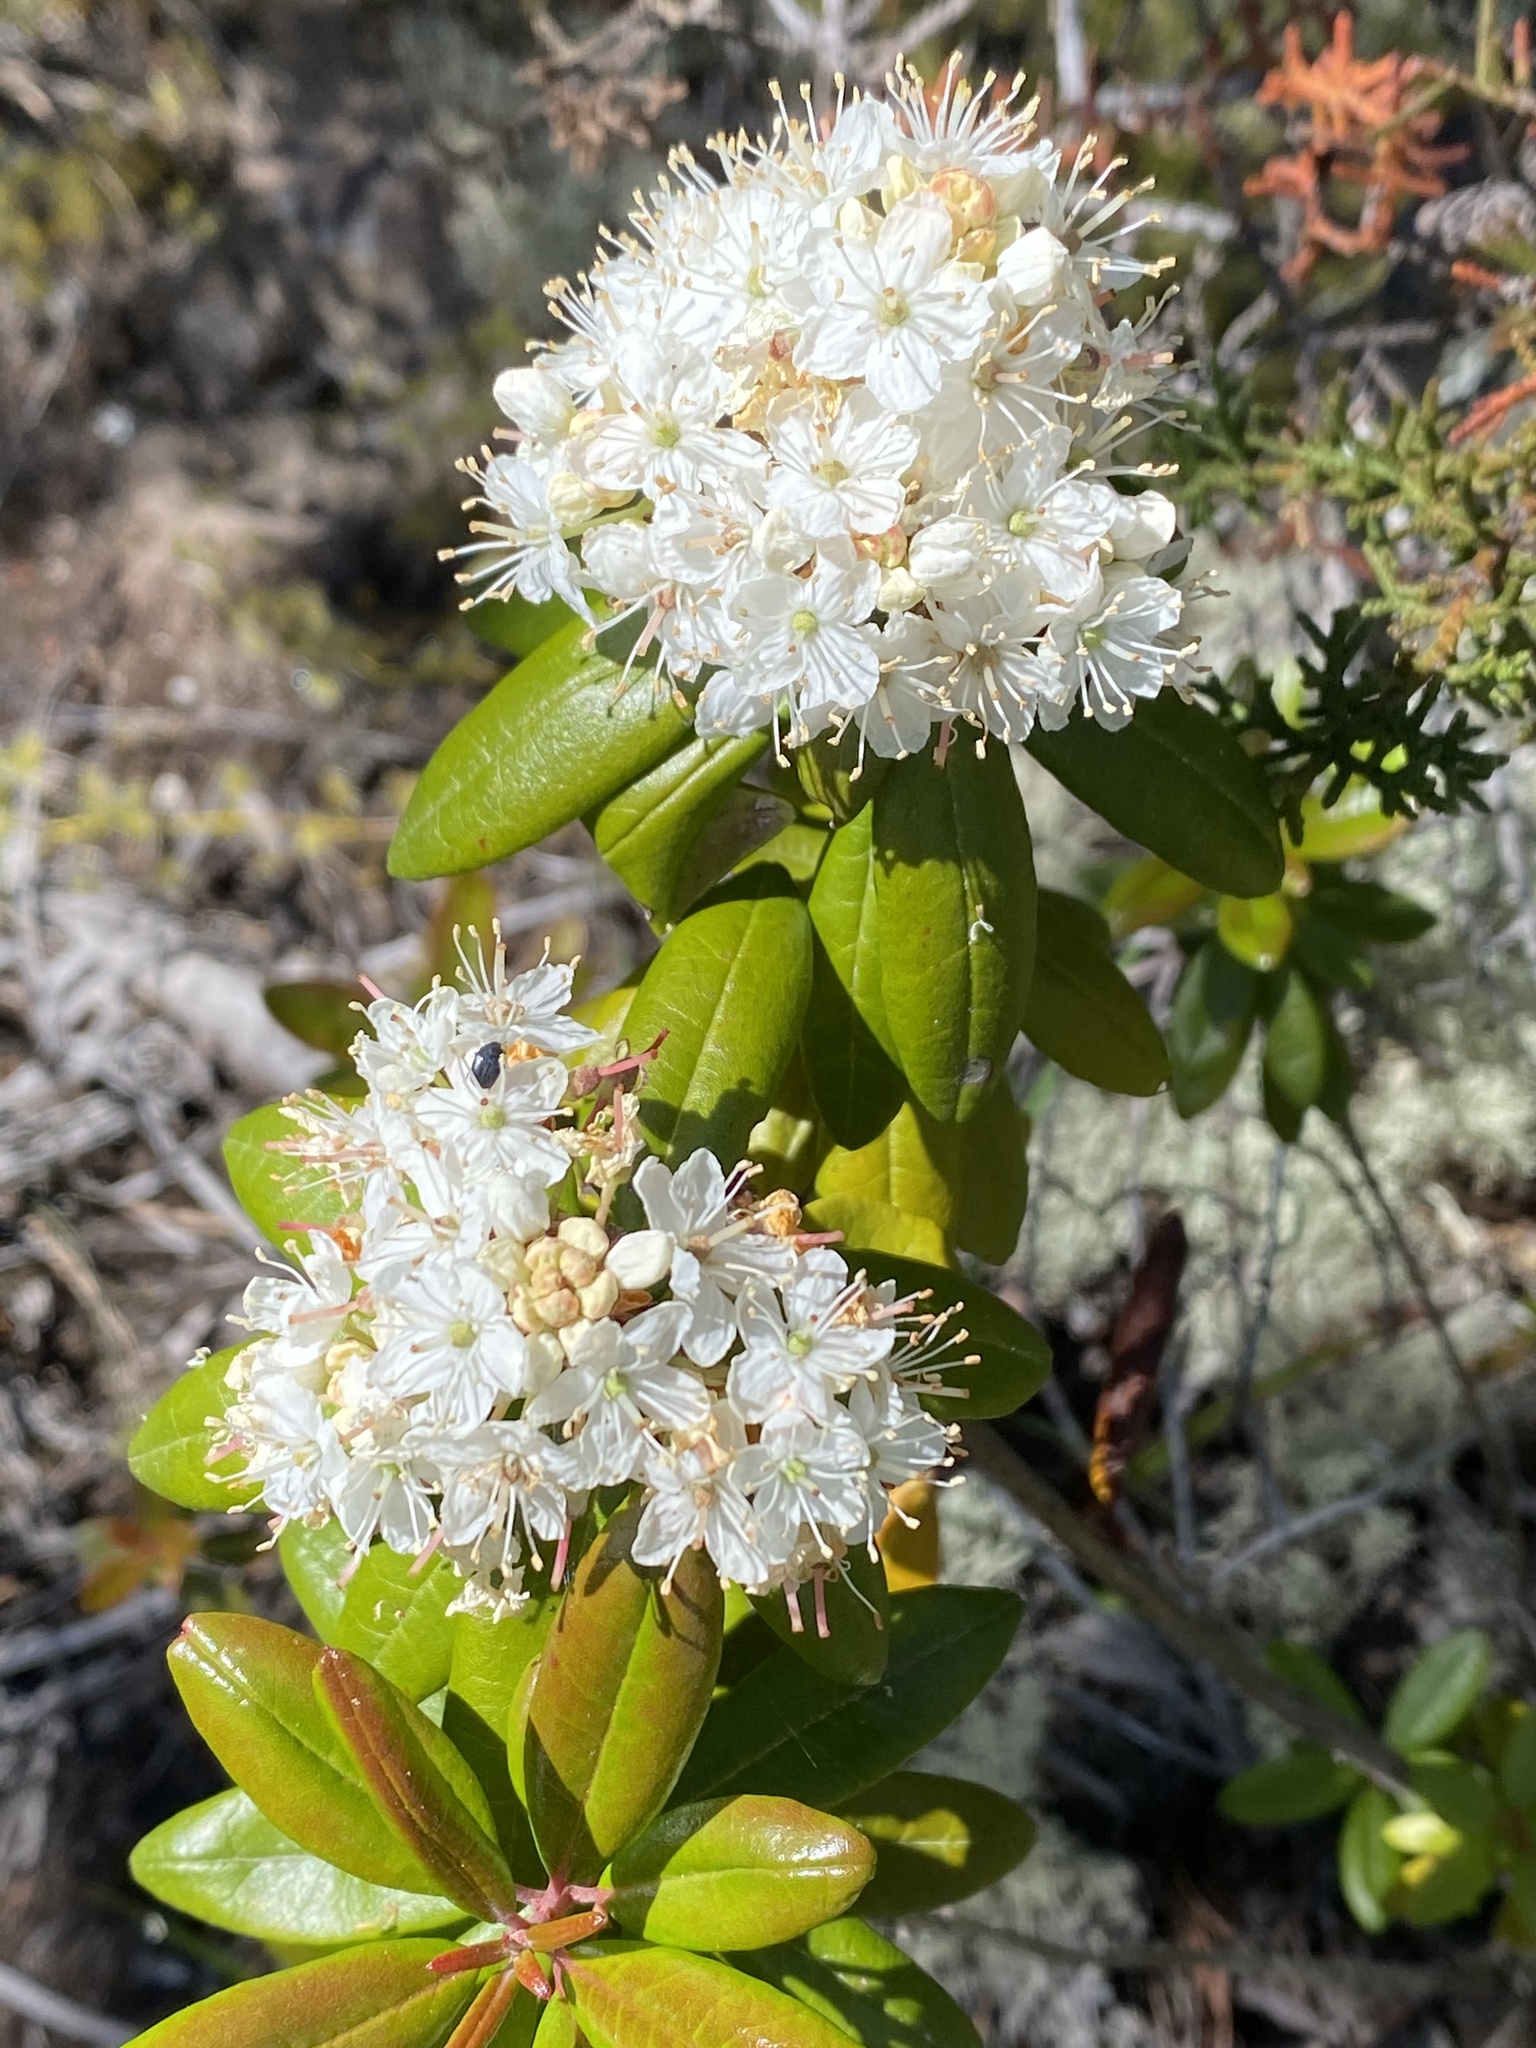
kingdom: Plantae
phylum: Tracheophyta
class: Magnoliopsida
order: Ericales
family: Ericaceae
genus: Rhododendron
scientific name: Rhododendron columbianum
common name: Western labrador tea
